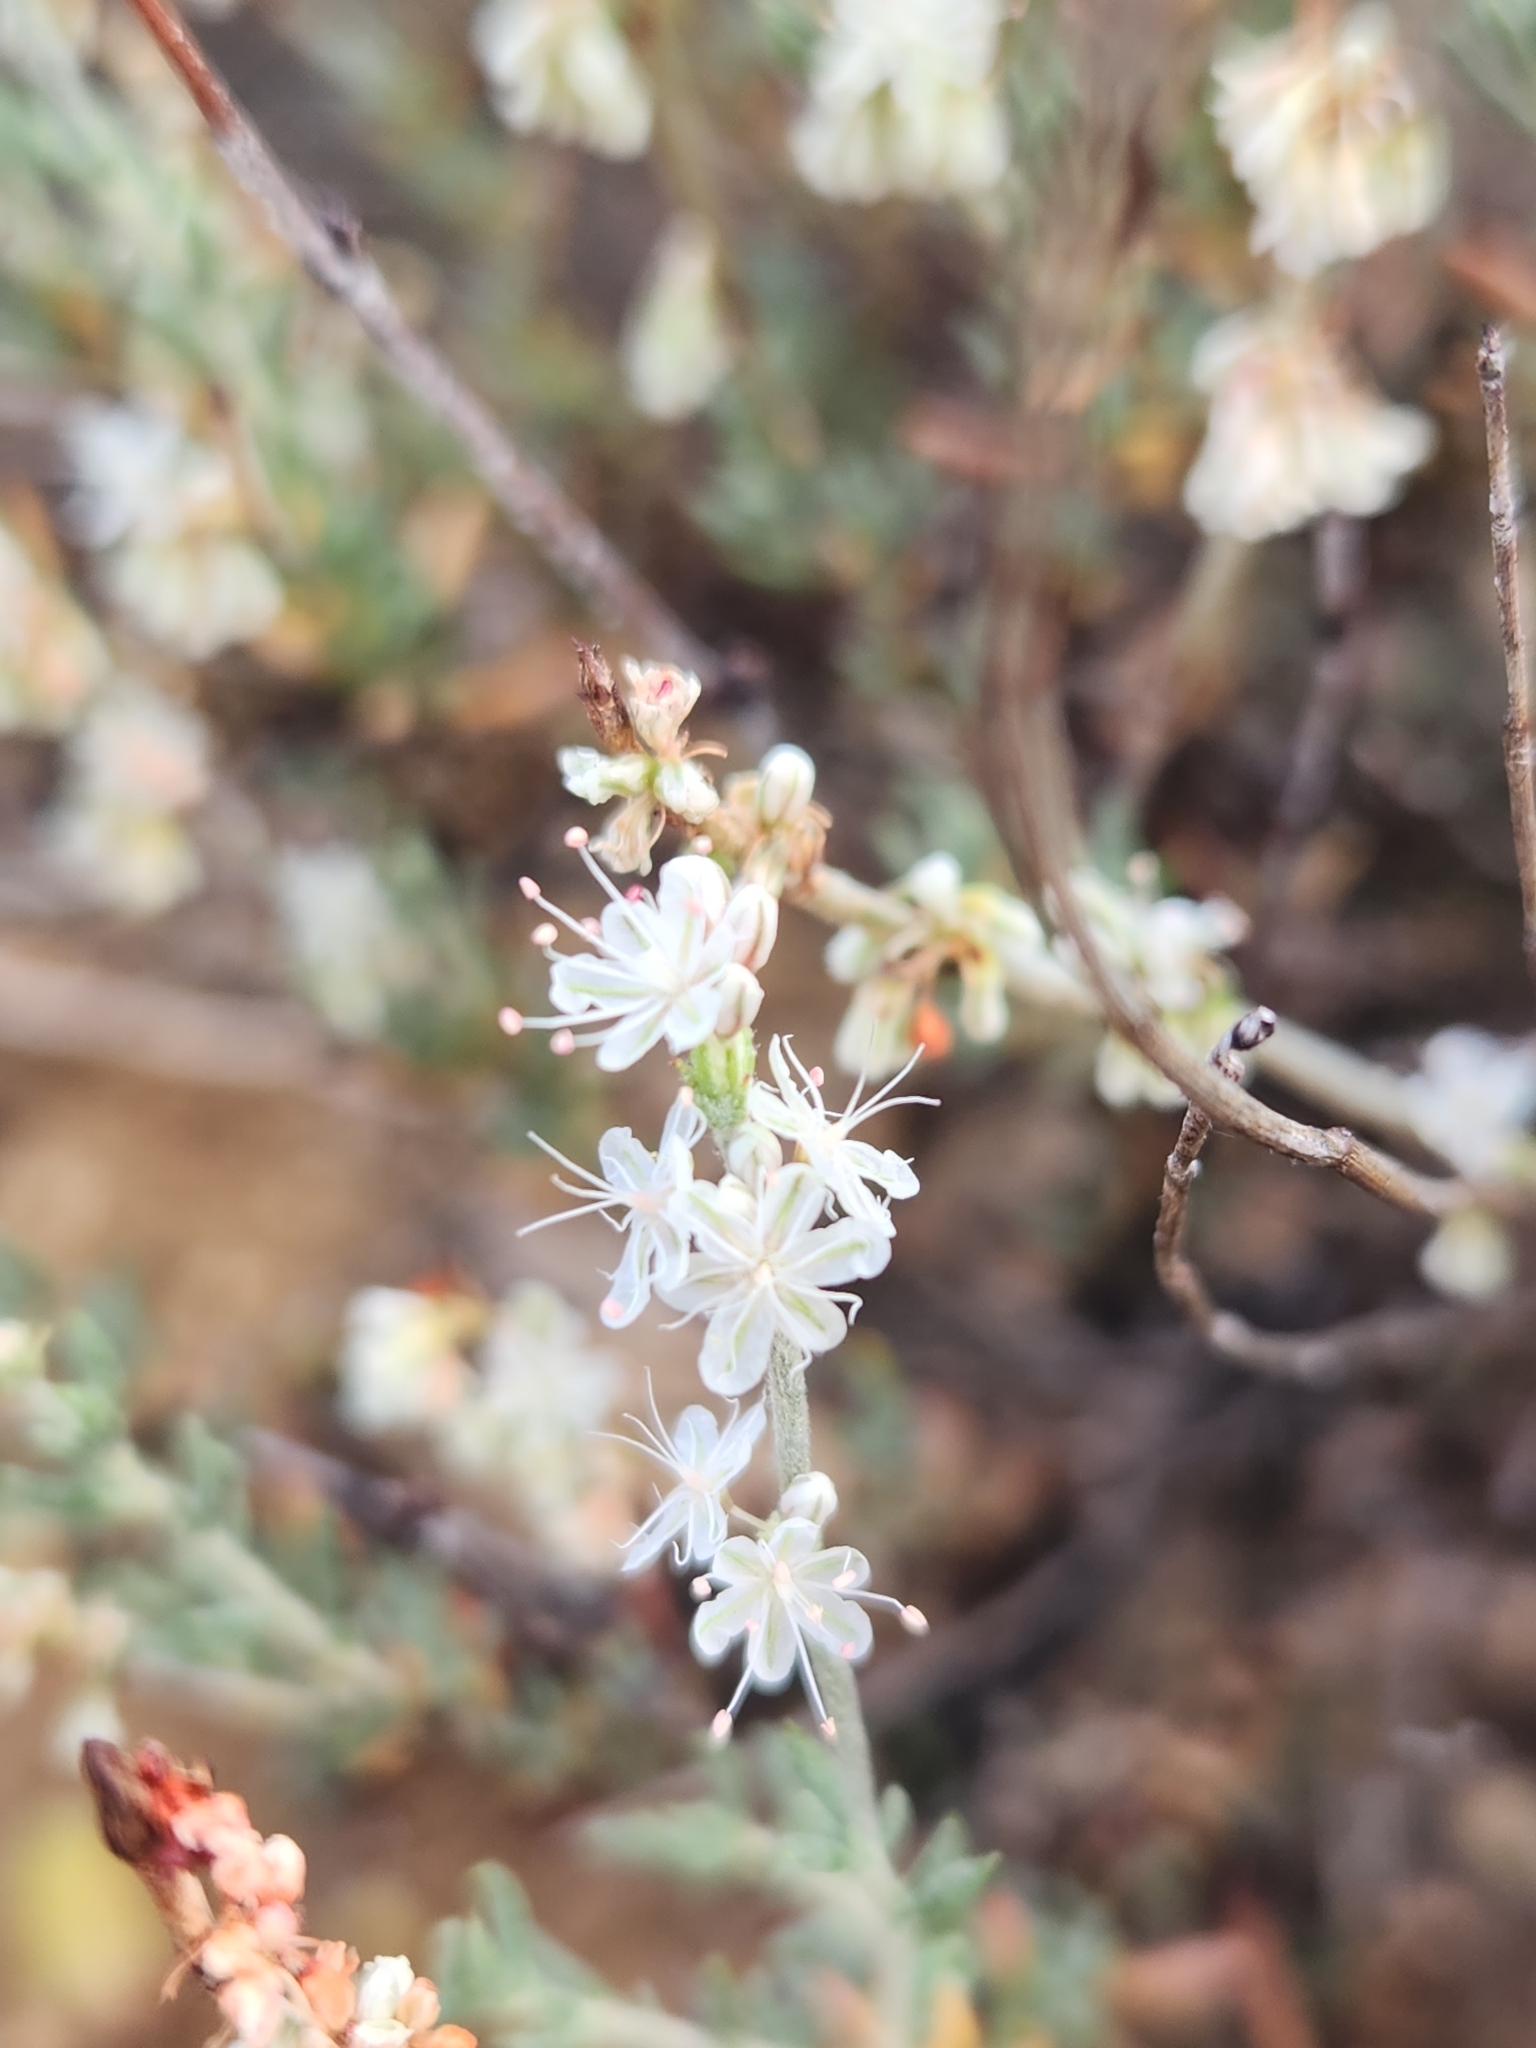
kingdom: Plantae
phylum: Tracheophyta
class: Magnoliopsida
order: Caryophyllales
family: Polygonaceae
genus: Eriogonum
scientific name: Eriogonum wrightii
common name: Bastard-sage
